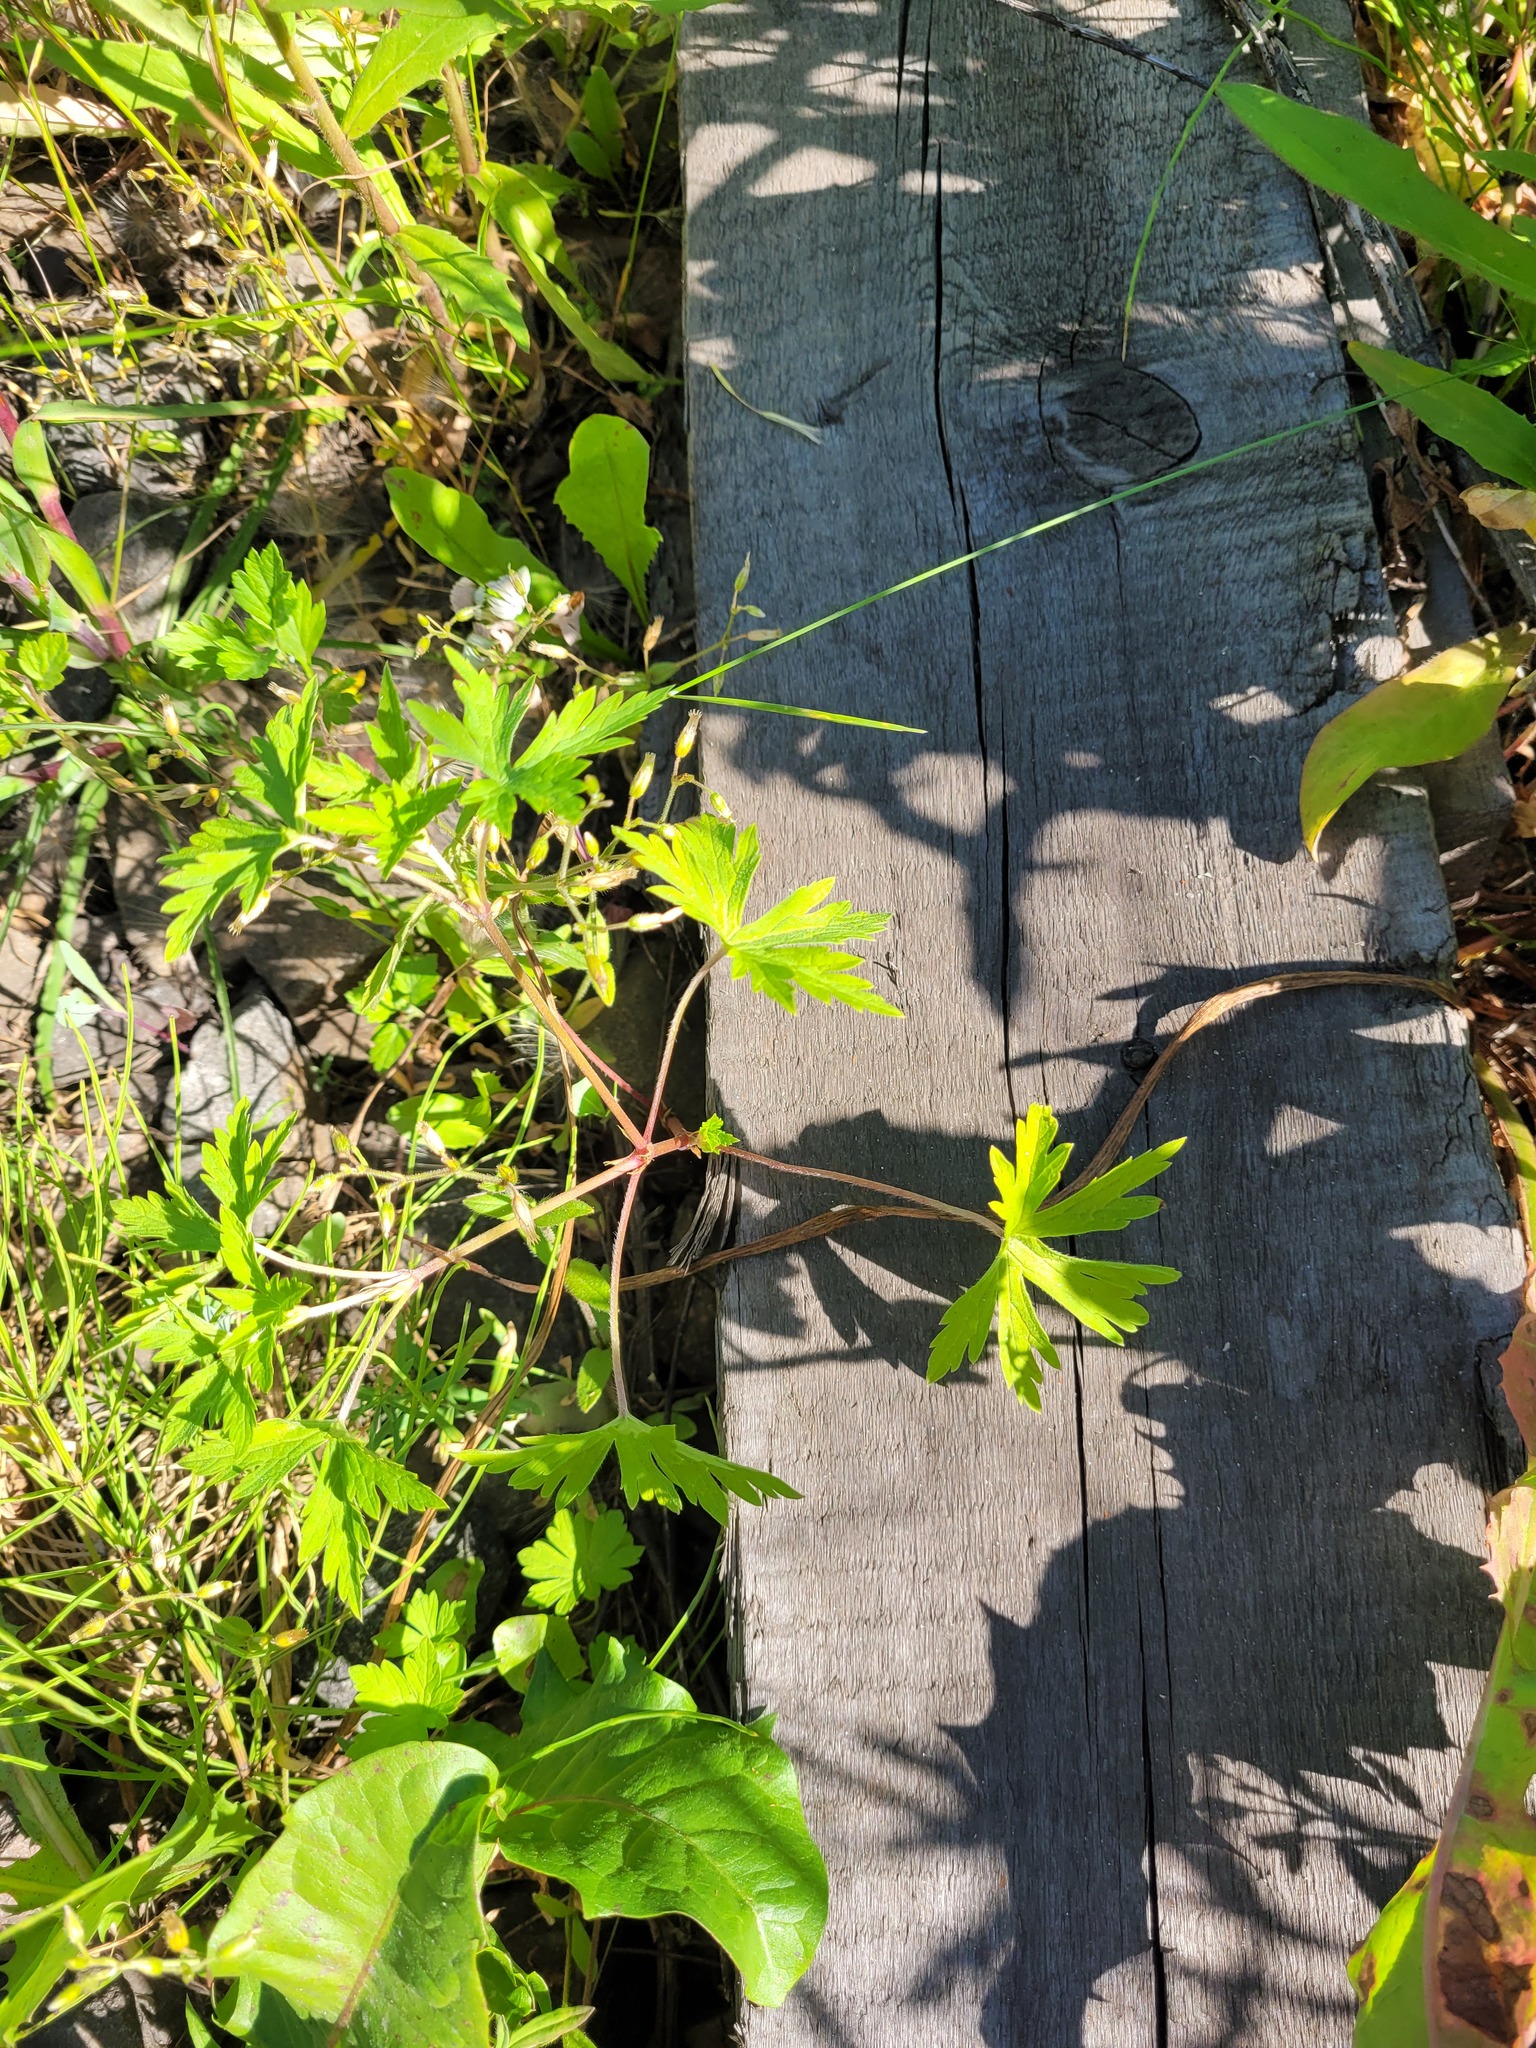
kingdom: Plantae
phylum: Tracheophyta
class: Magnoliopsida
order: Geraniales
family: Geraniaceae
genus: Geranium
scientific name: Geranium sibiricum
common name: Siberian crane's-bill
